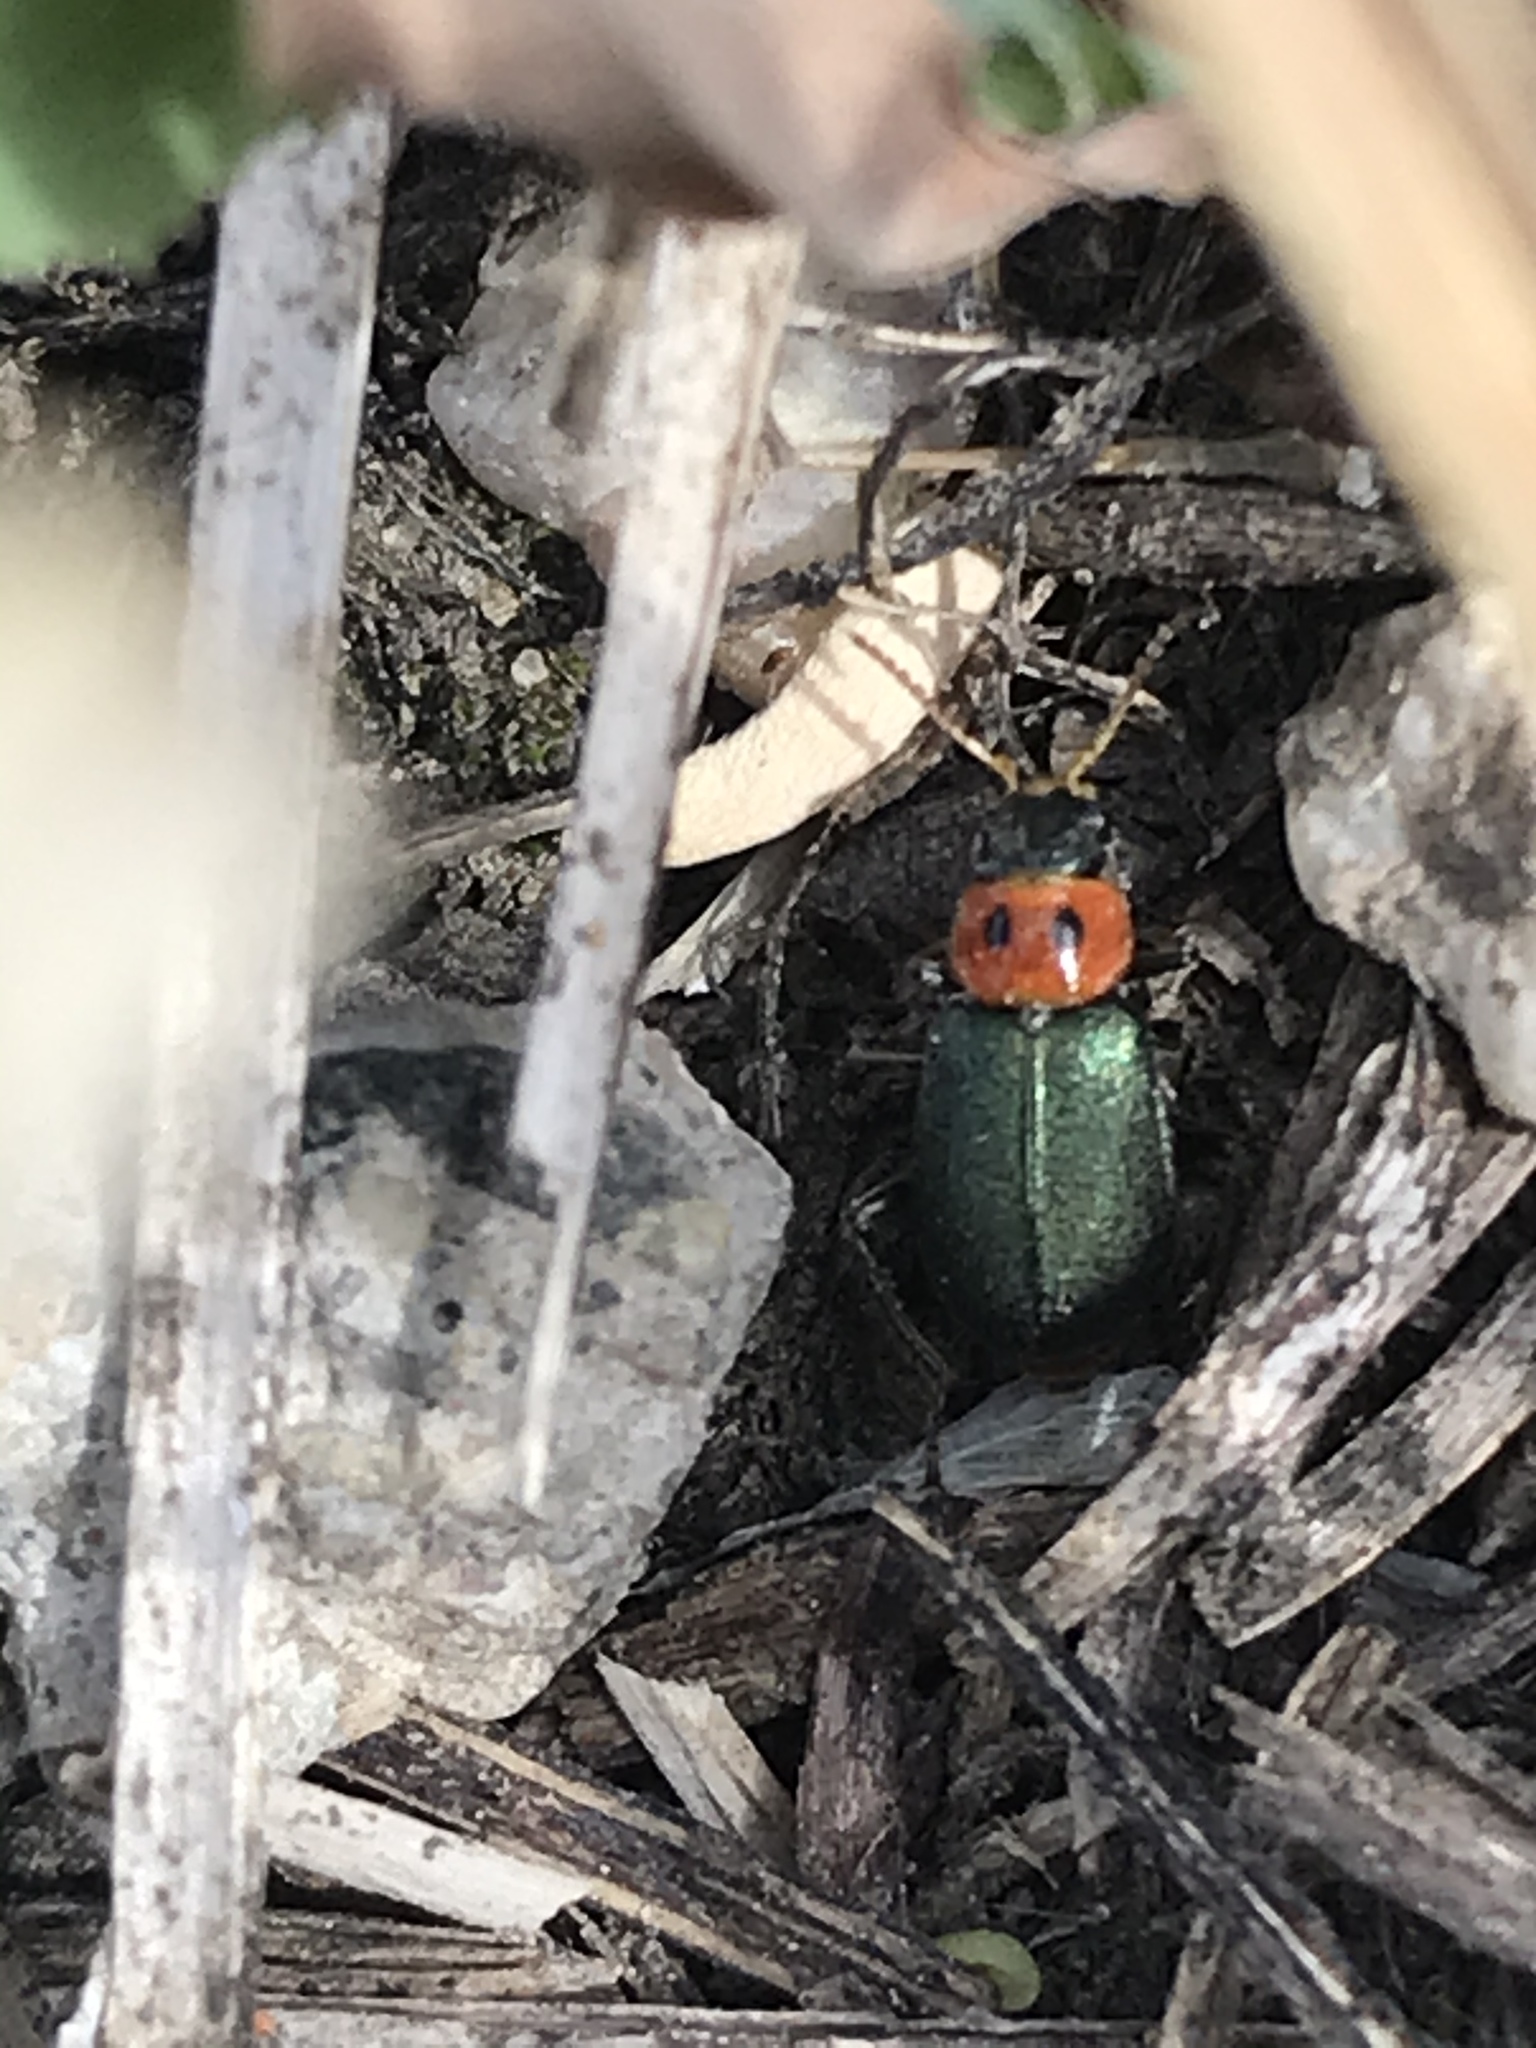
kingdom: Animalia
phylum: Arthropoda
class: Insecta
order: Coleoptera
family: Melyridae
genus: Collops
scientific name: Collops bipunctatus
